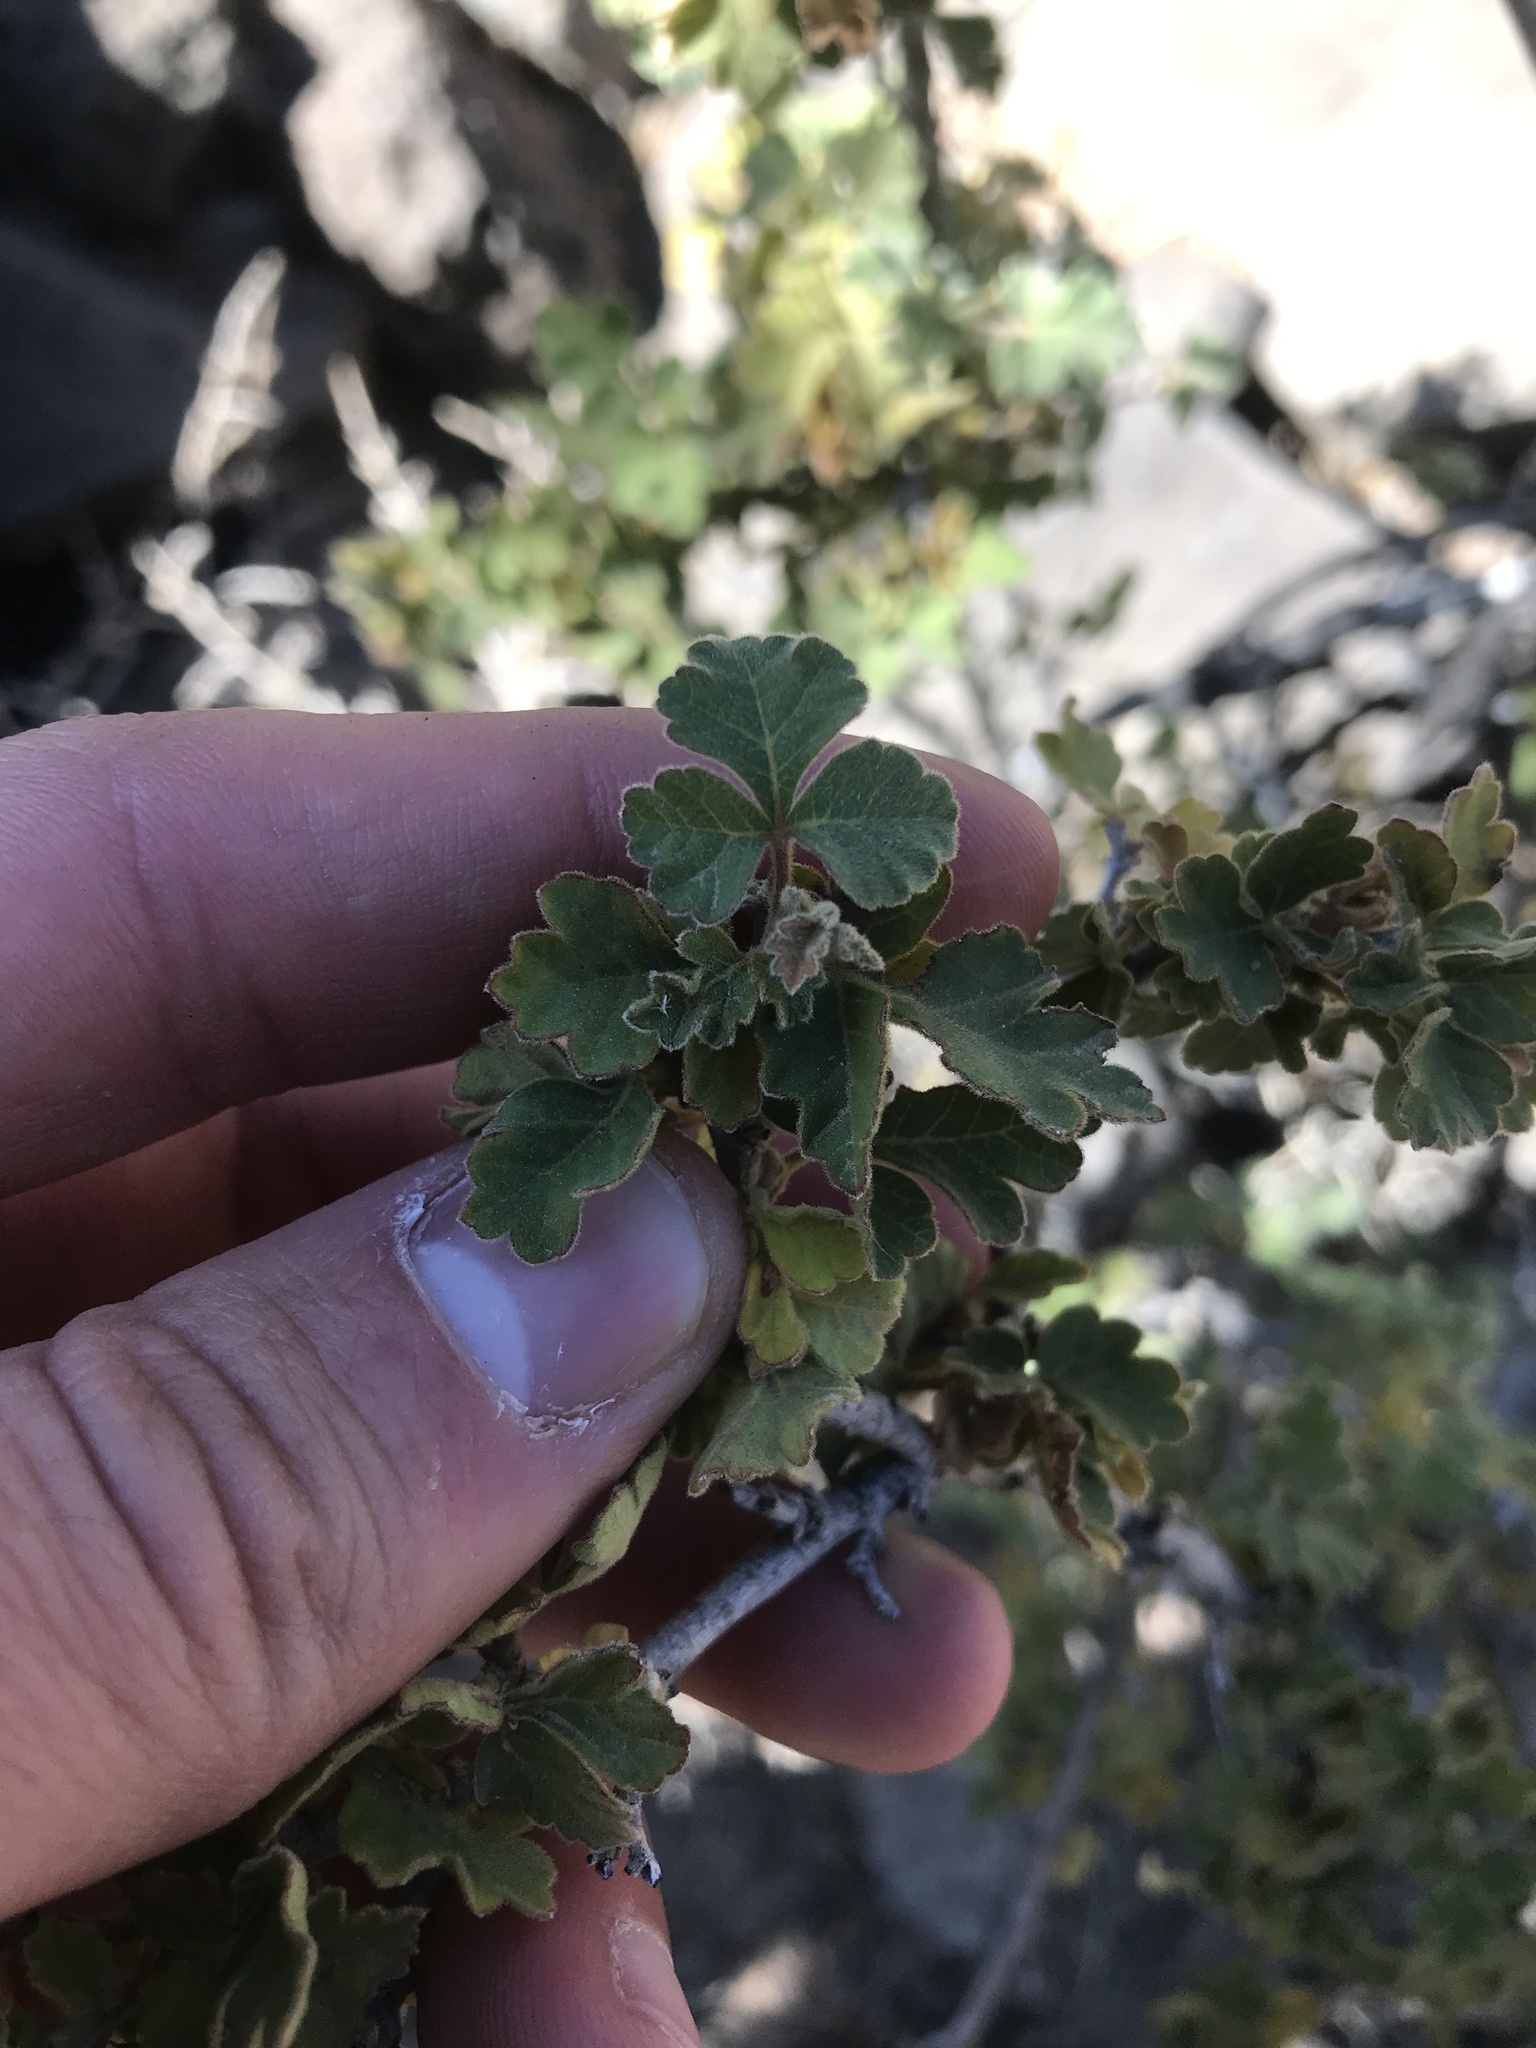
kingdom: Plantae
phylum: Tracheophyta
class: Magnoliopsida
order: Sapindales
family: Anacardiaceae
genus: Rhus
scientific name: Rhus trilobata
